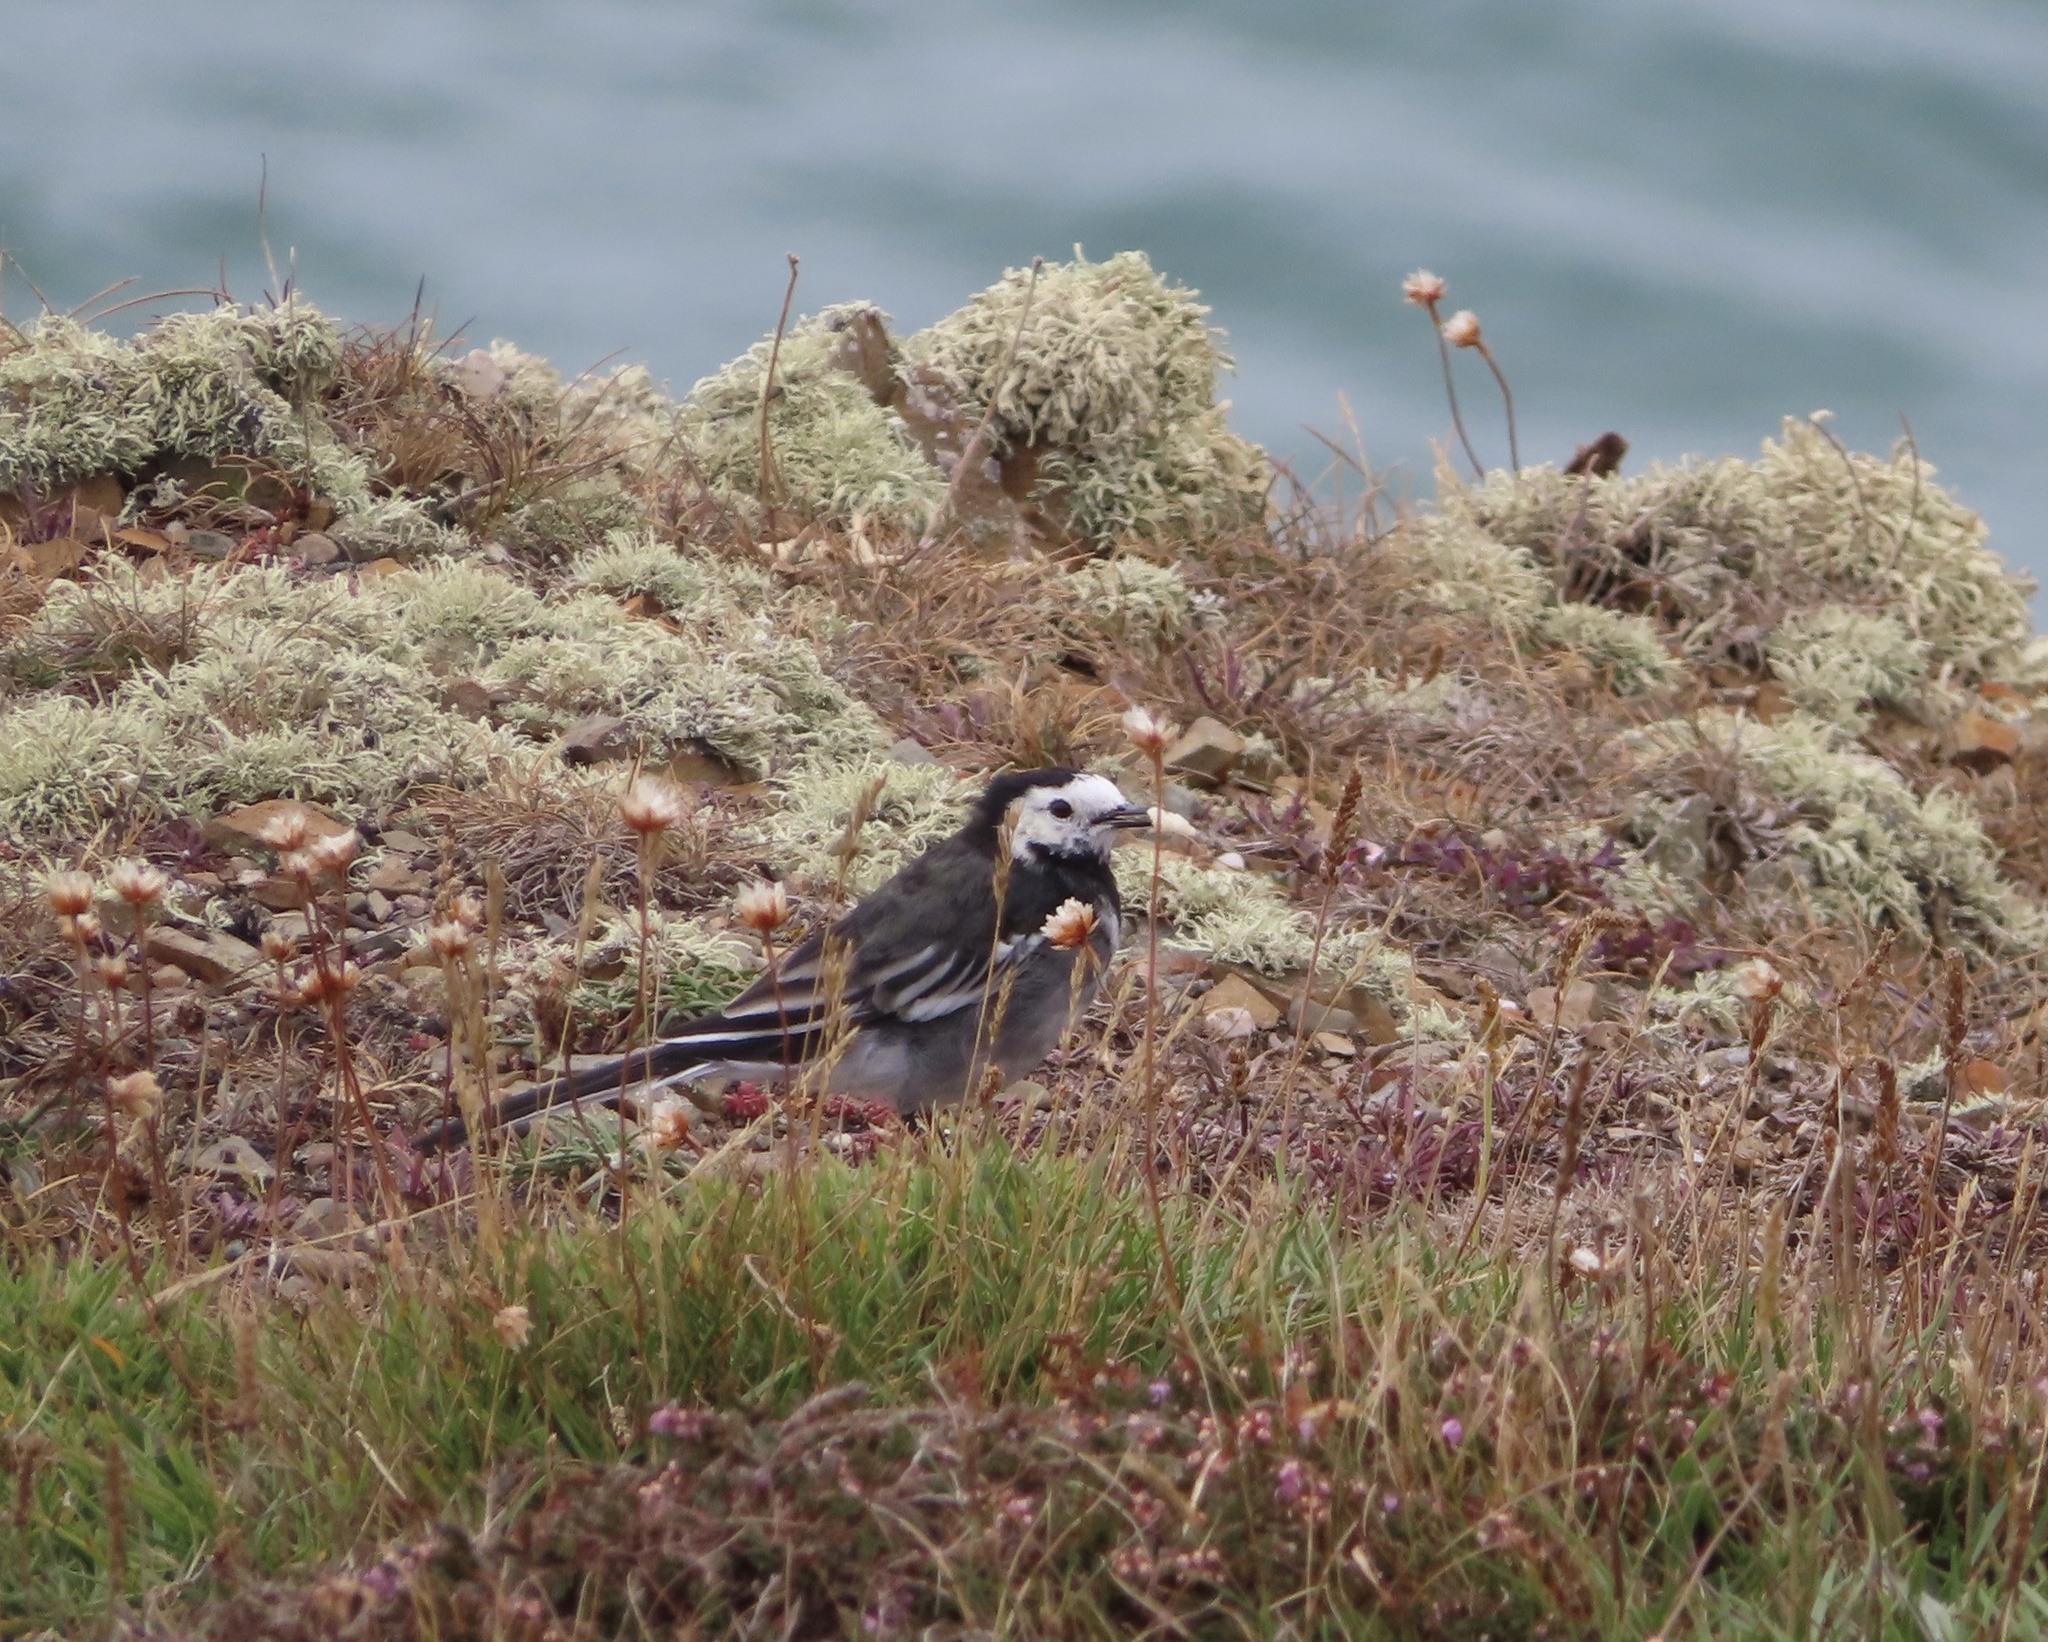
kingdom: Animalia
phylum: Chordata
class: Aves
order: Passeriformes
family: Motacillidae
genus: Motacilla
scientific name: Motacilla alba
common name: White wagtail
